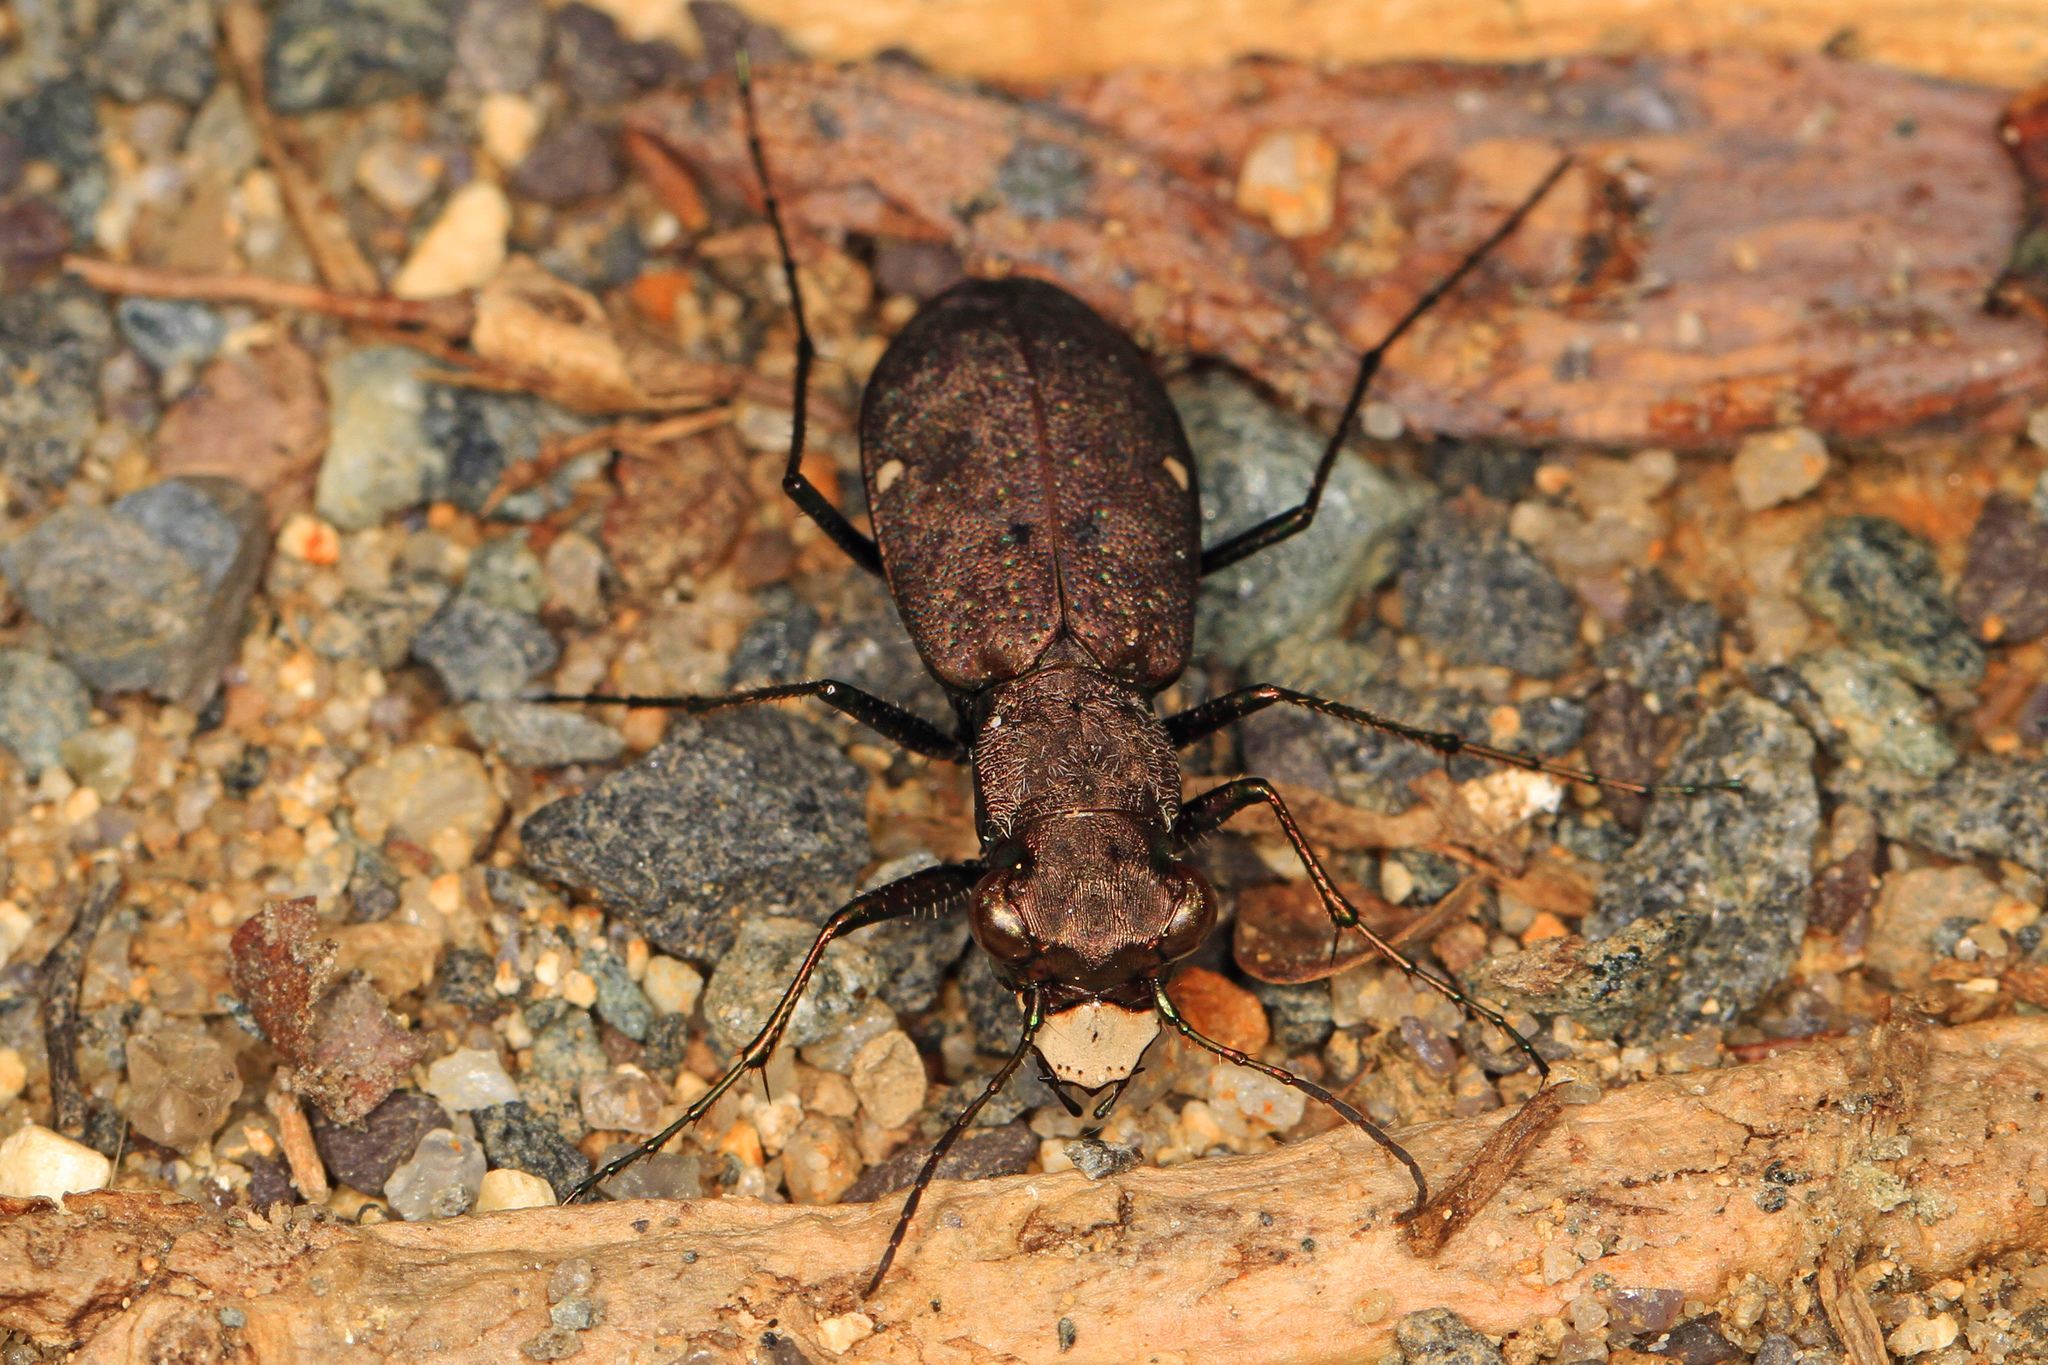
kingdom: Animalia
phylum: Arthropoda
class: Insecta
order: Coleoptera
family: Carabidae
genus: Cylindera
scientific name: Cylindera unipunctata
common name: One-spotted tiger beetle
